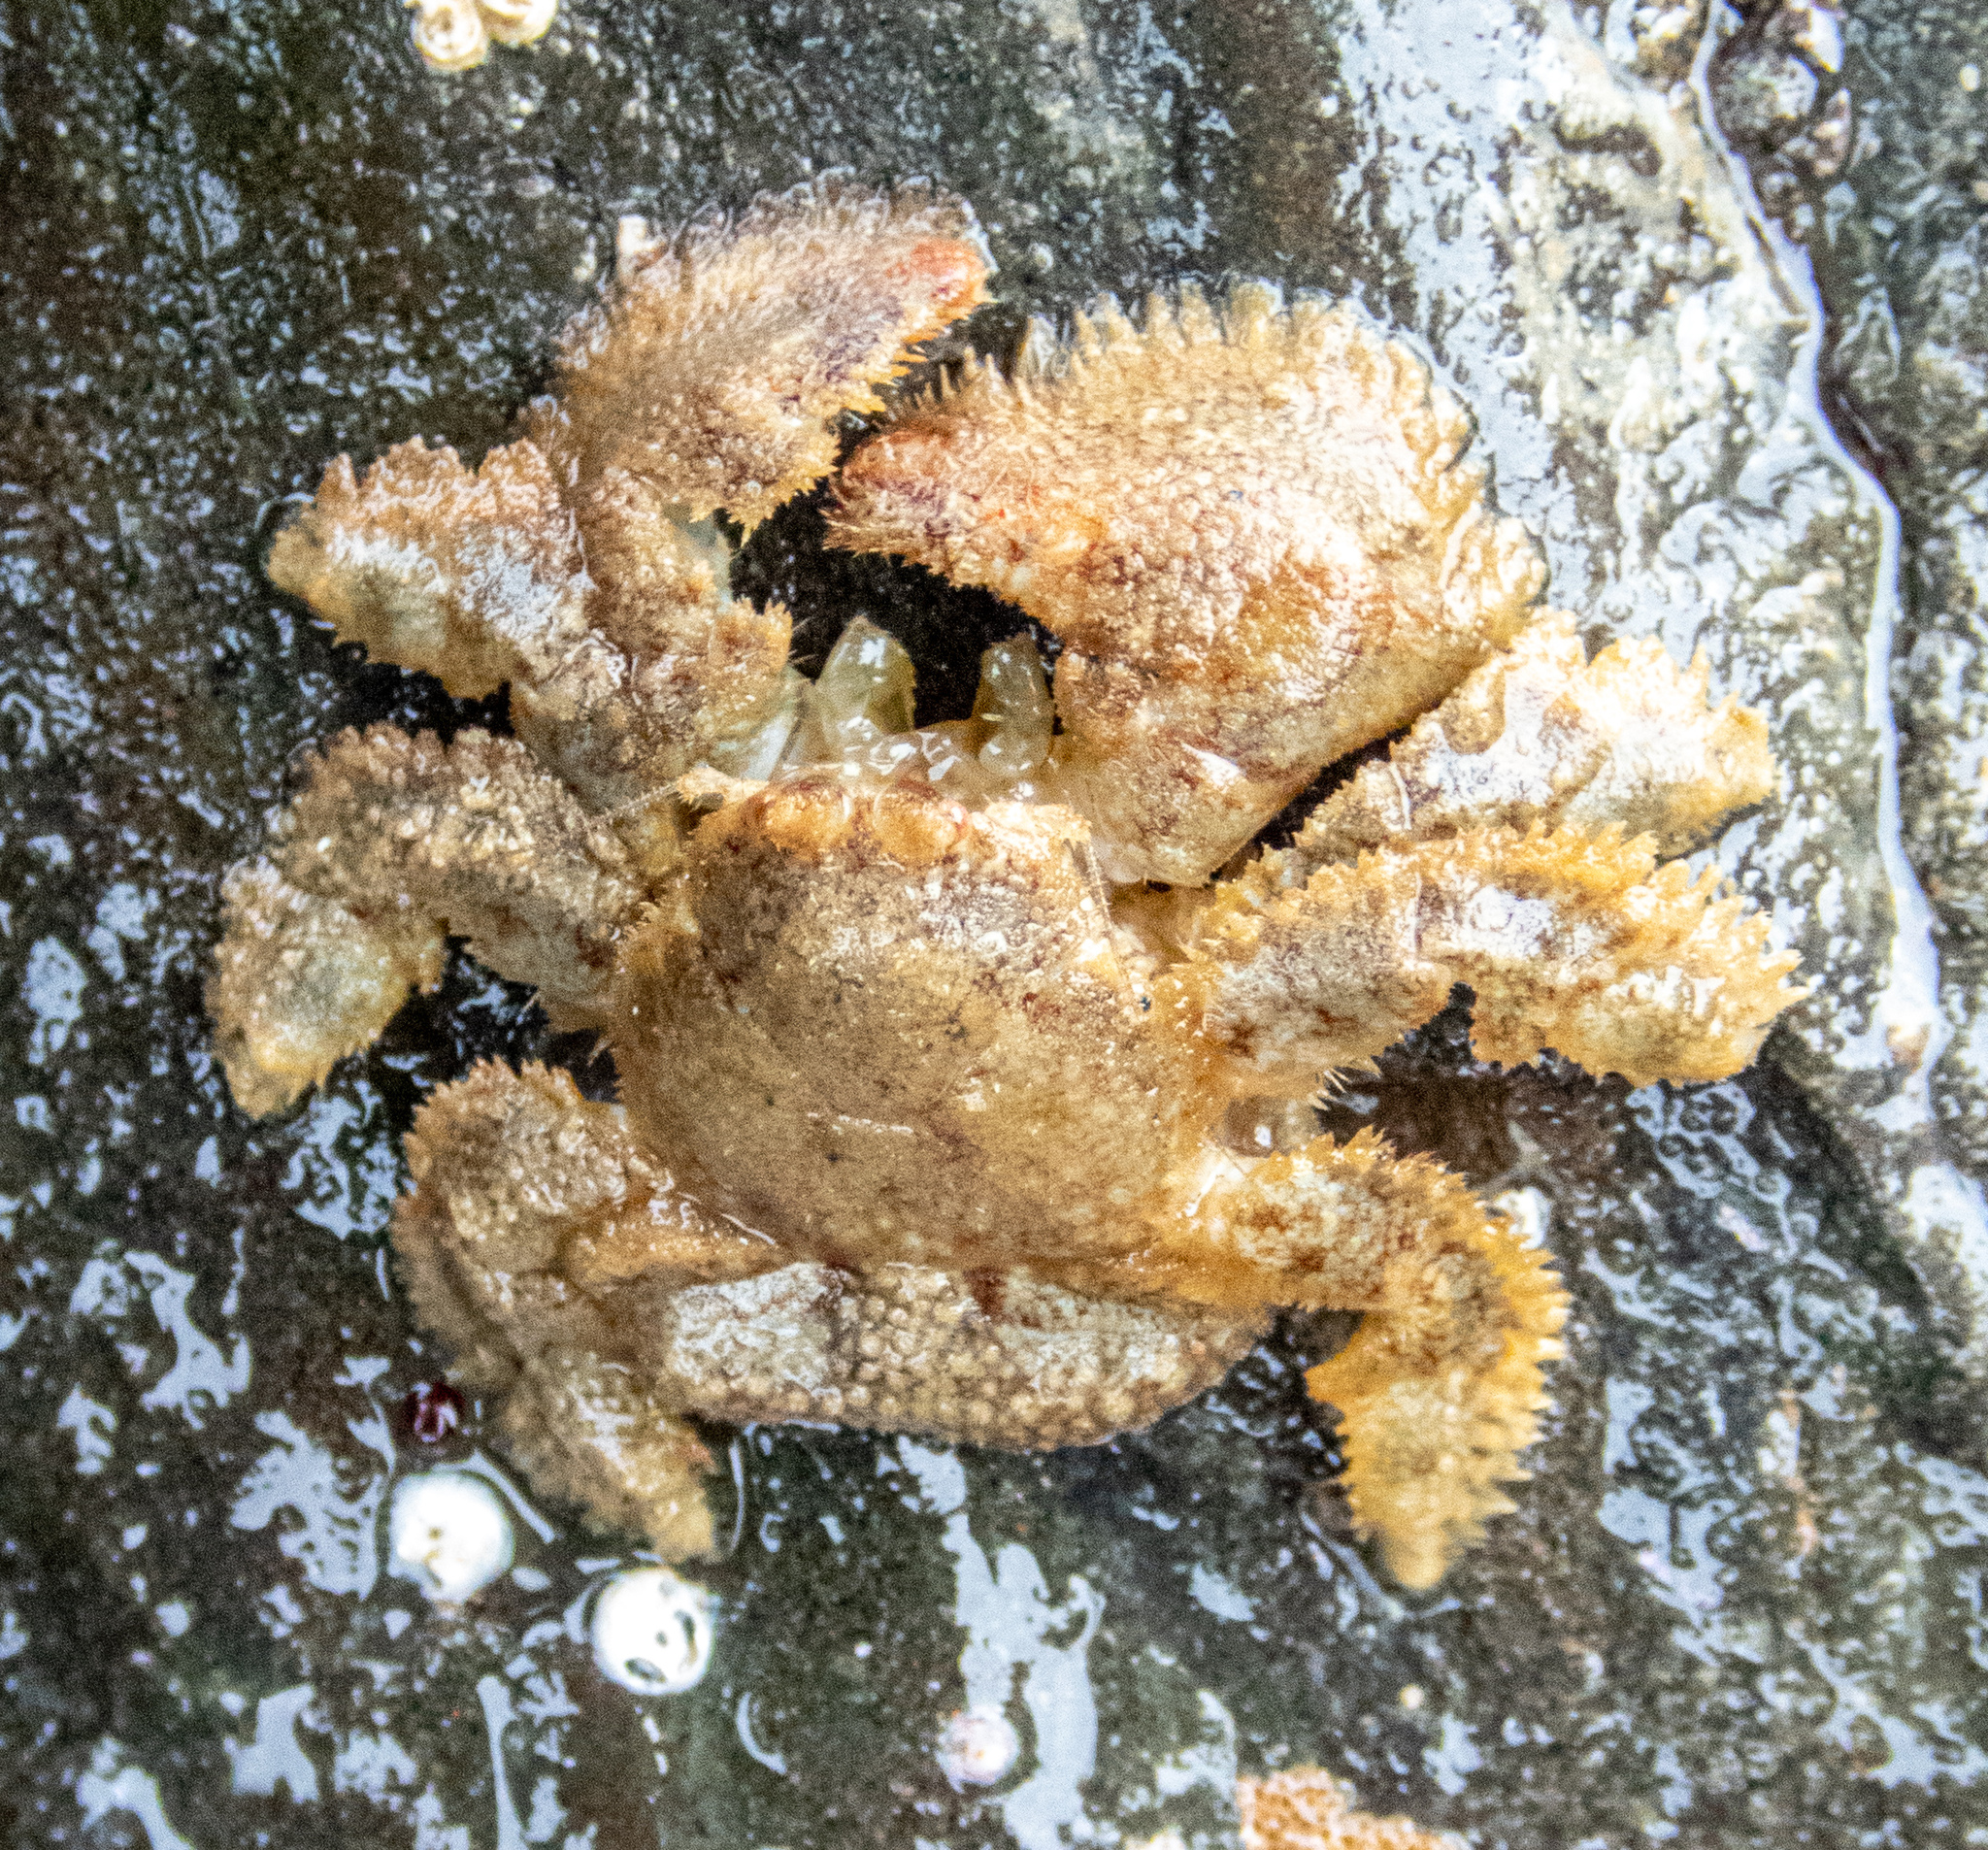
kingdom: Animalia
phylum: Arthropoda
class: Malacostraca
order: Decapoda
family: Hapalogastridae
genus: Hapalogaster
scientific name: Hapalogaster cavicauda
